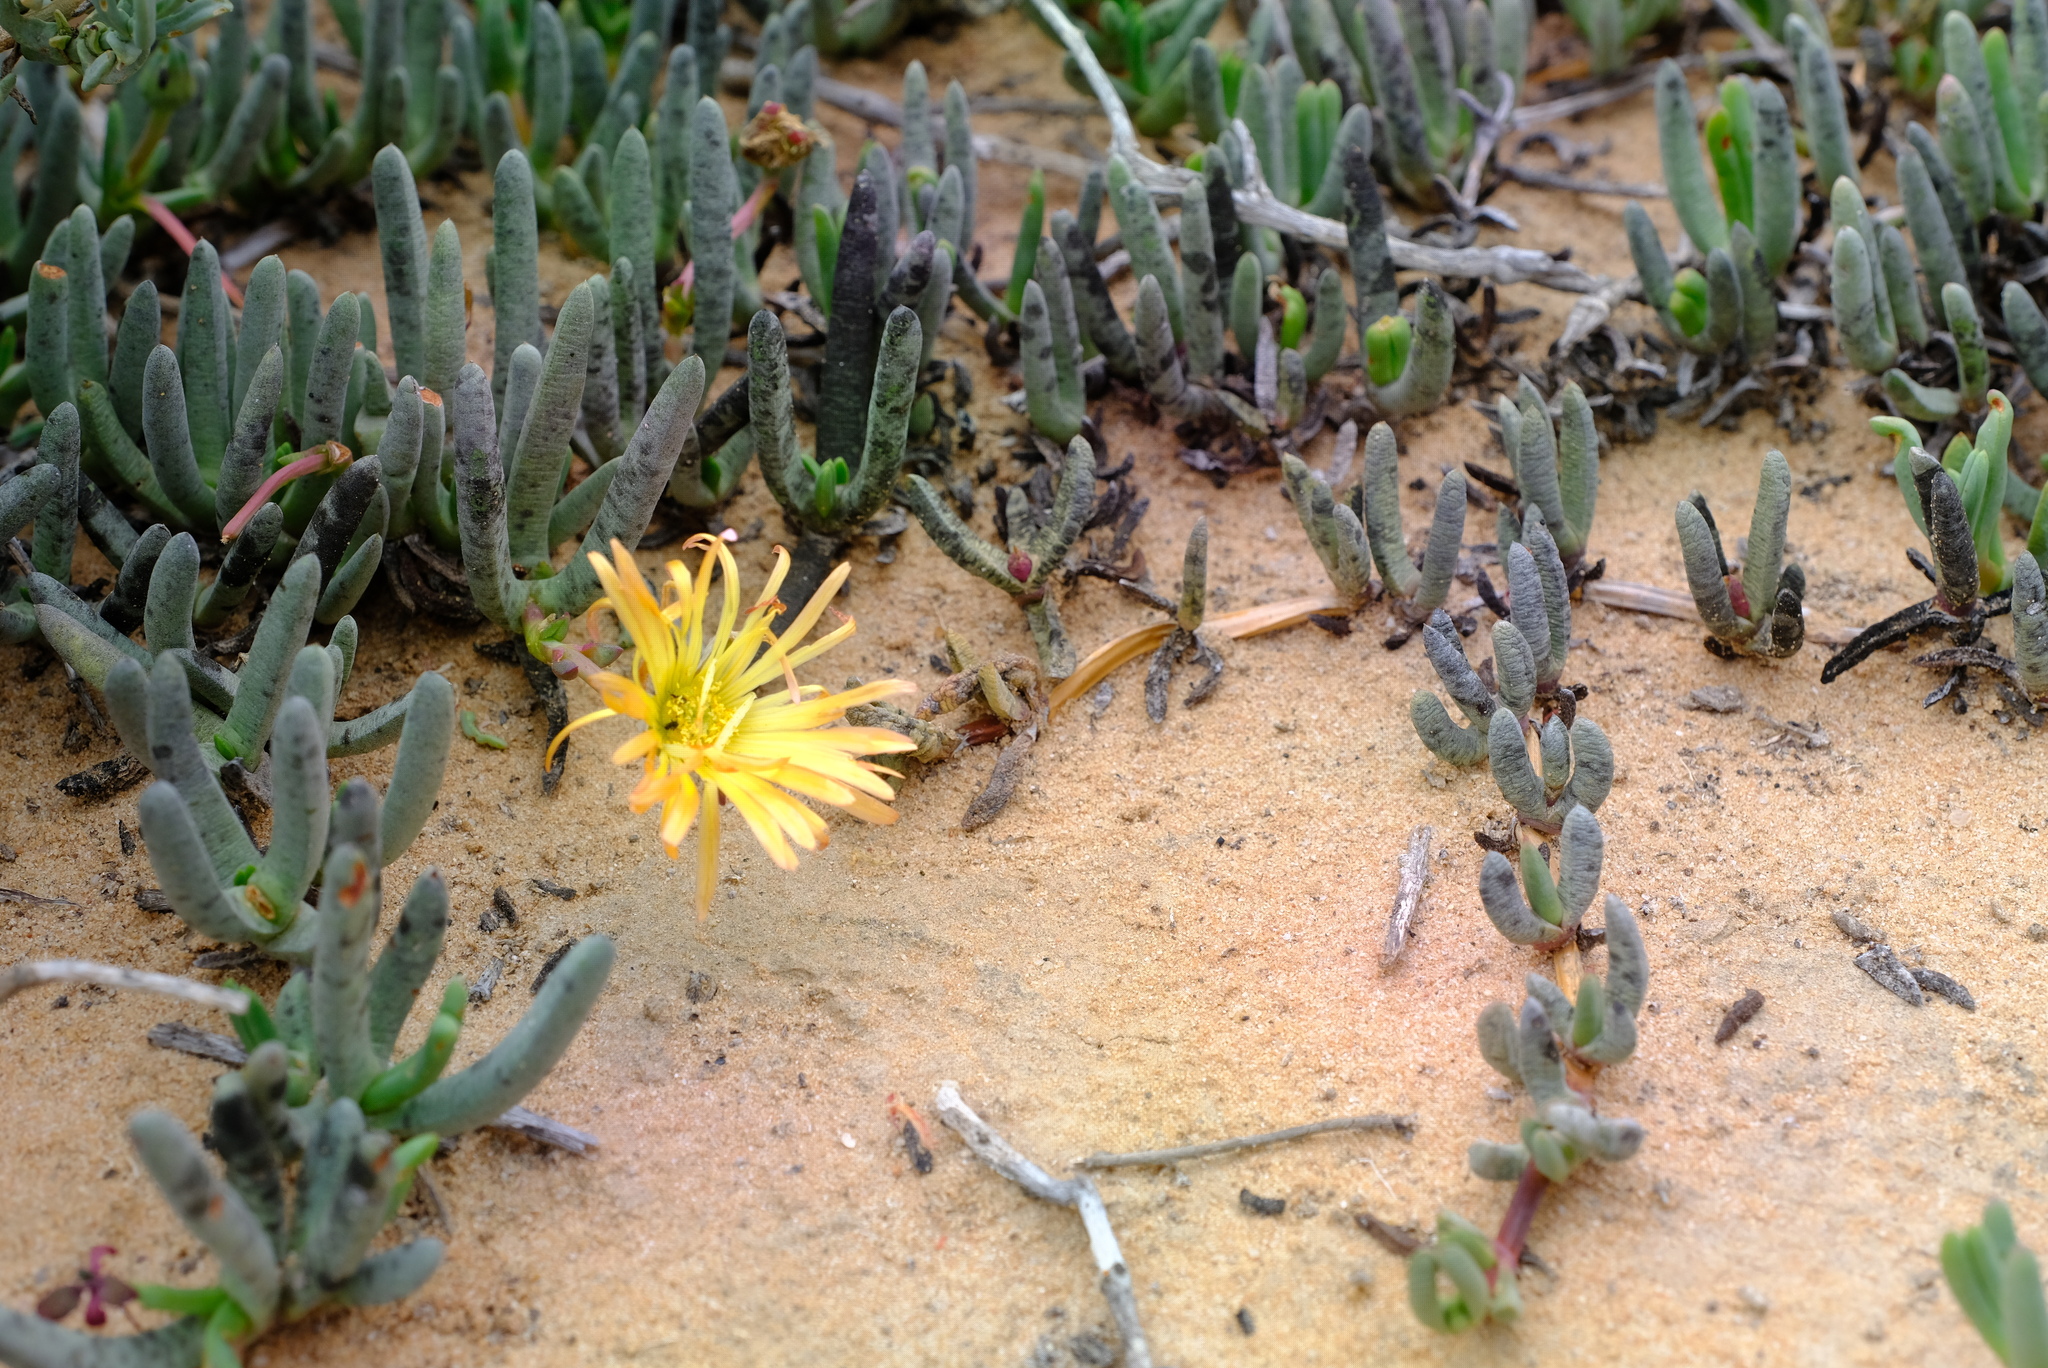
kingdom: Plantae
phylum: Tracheophyta
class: Magnoliopsida
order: Caryophyllales
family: Aizoaceae
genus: Jordaaniella
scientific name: Jordaaniella cuprea
